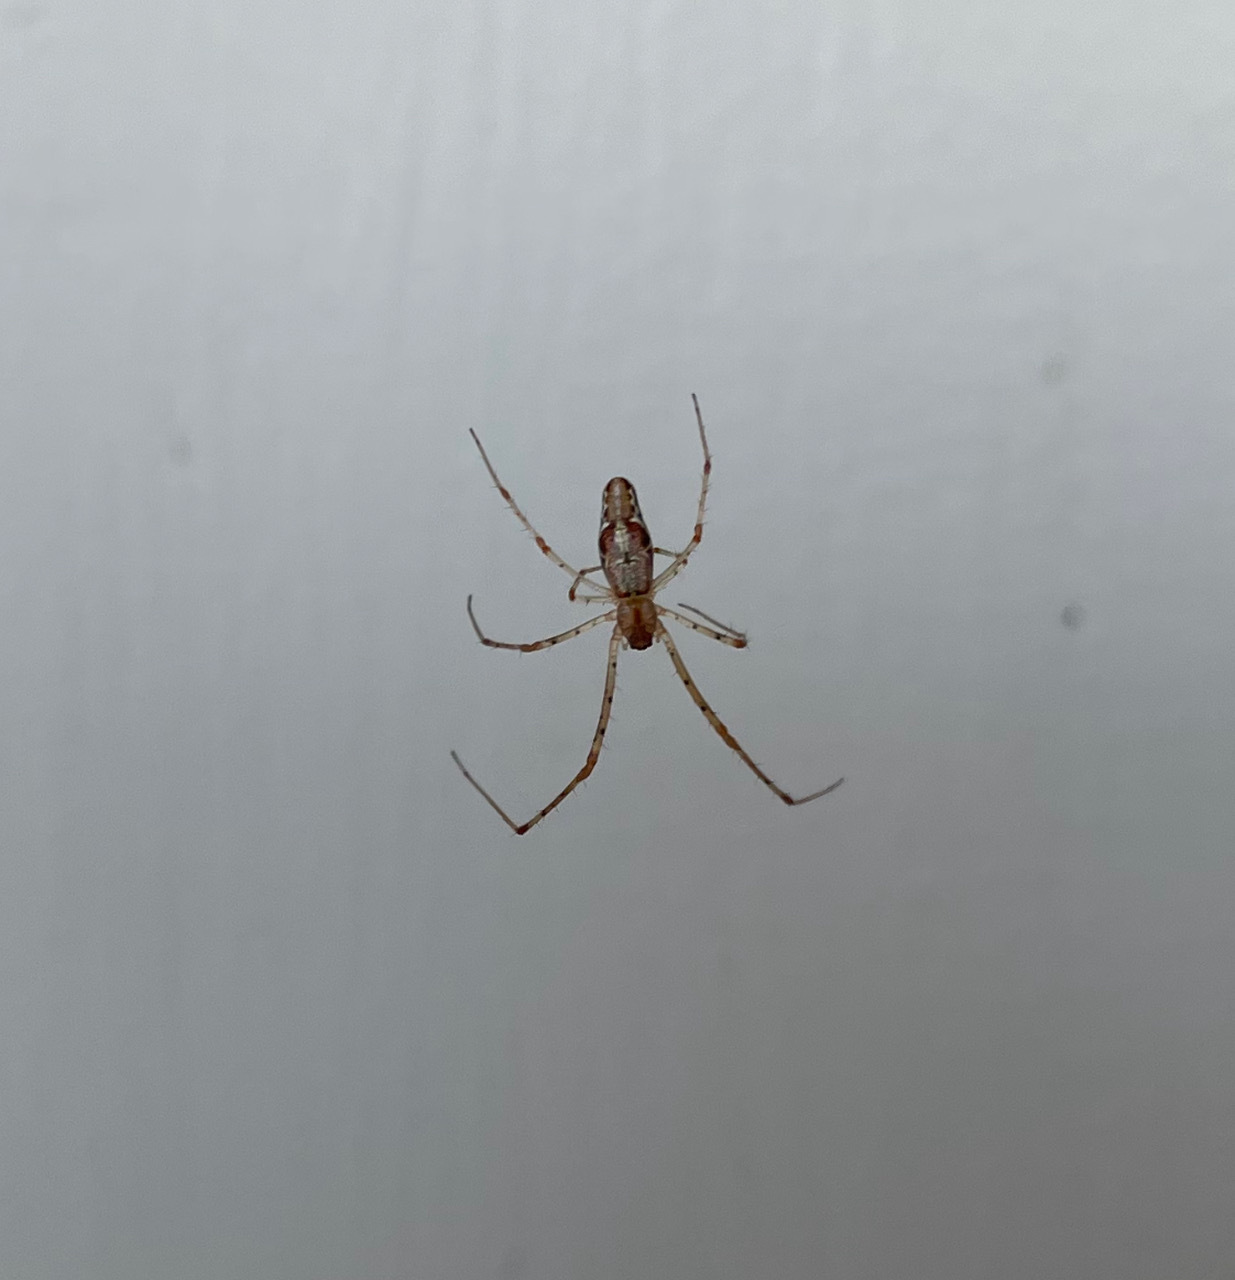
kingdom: Animalia
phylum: Arthropoda
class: Arachnida
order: Araneae
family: Tetragnathidae
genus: Tetragnatha
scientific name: Tetragnatha
